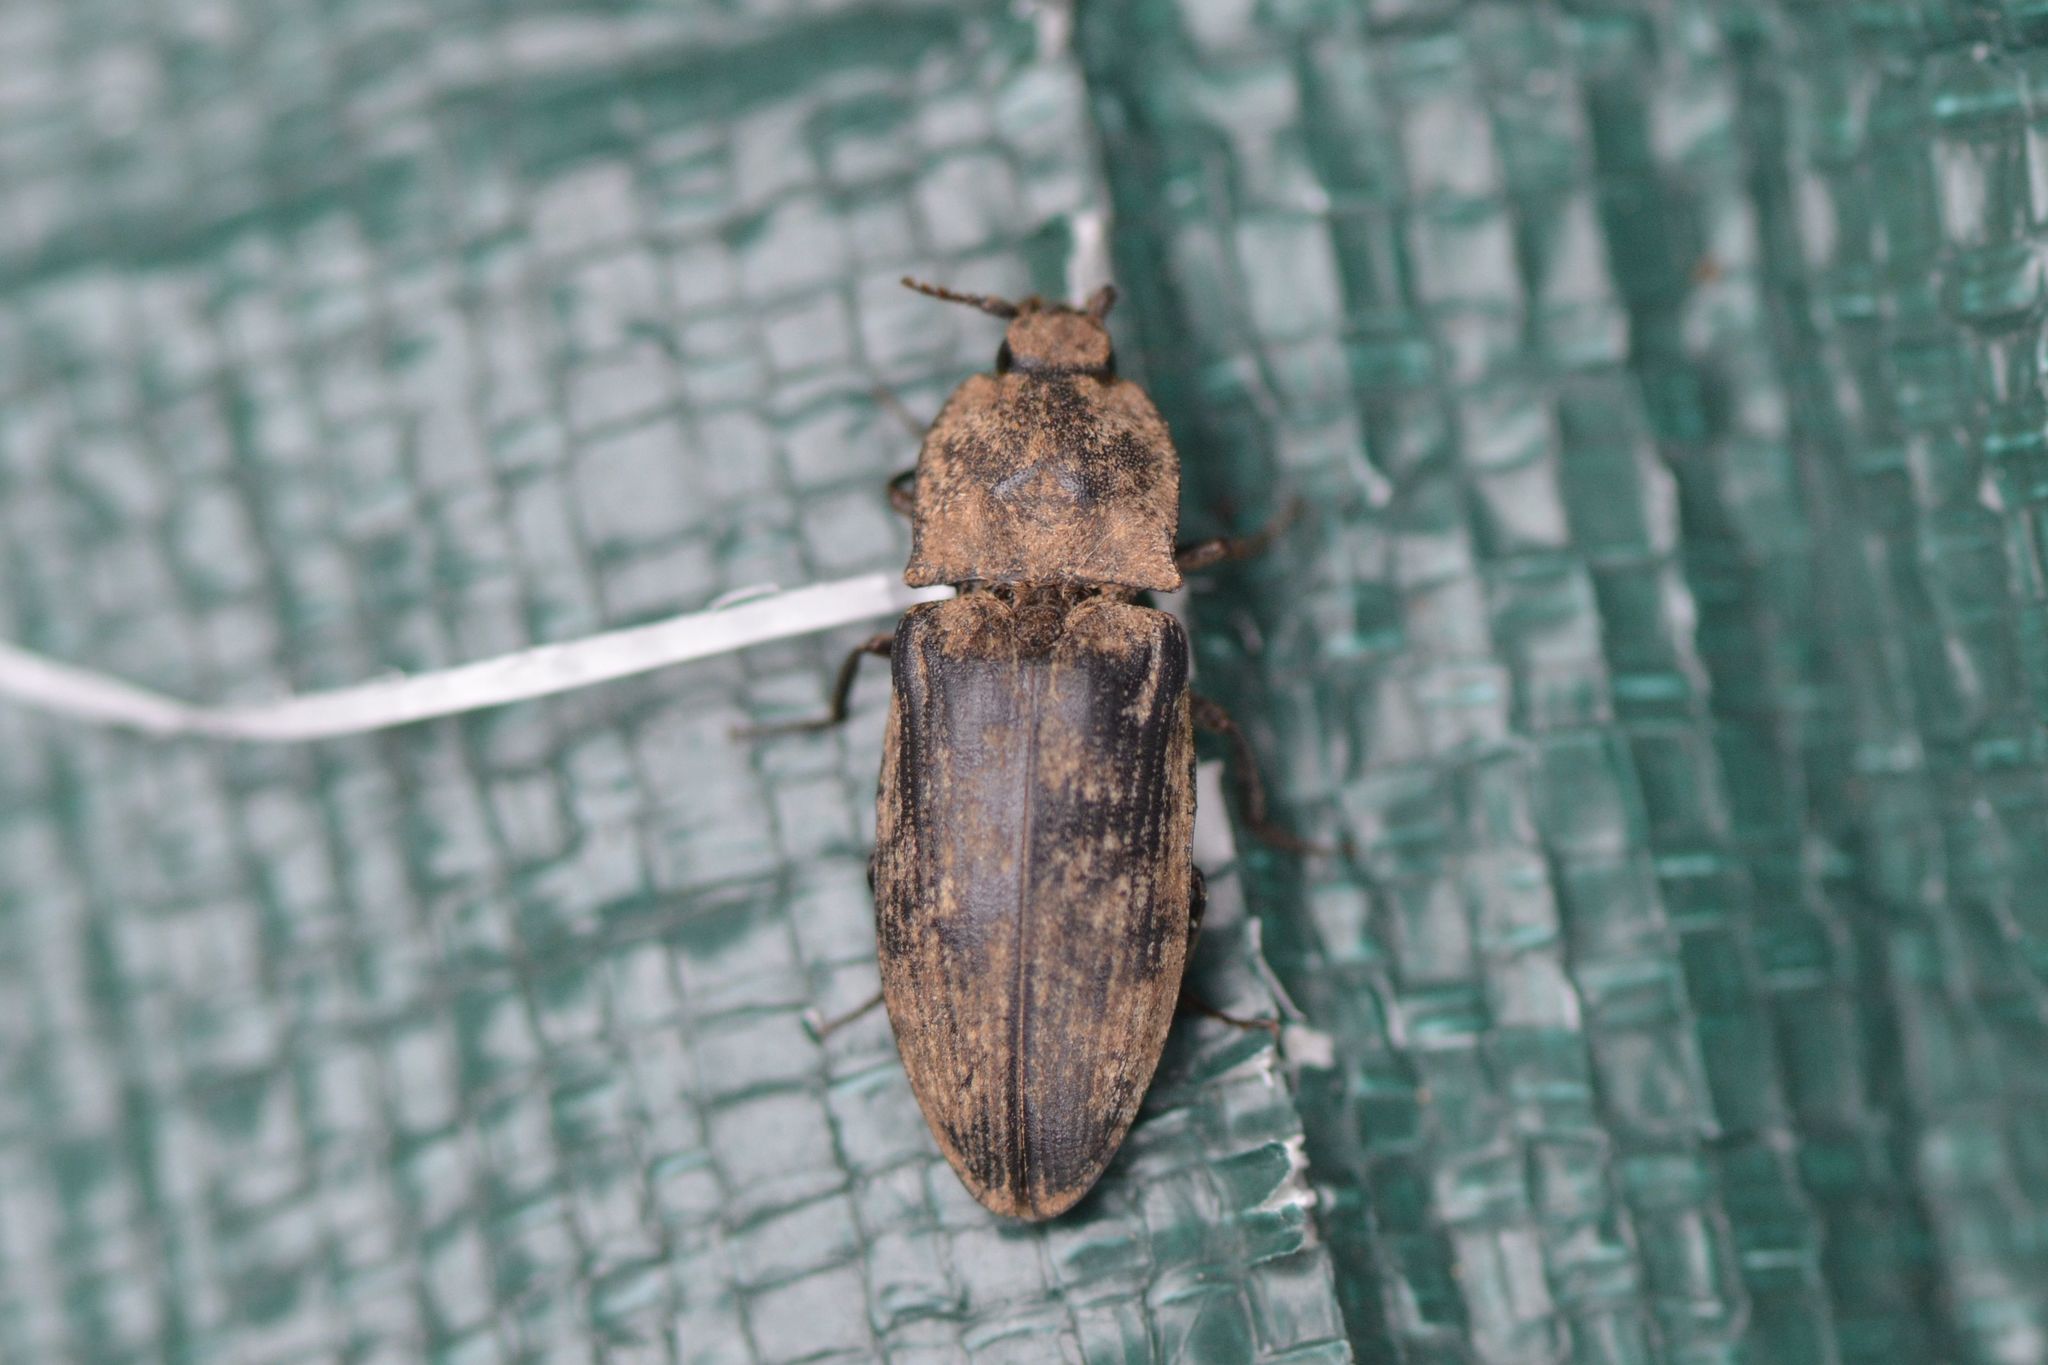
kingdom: Animalia
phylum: Arthropoda
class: Insecta
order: Coleoptera
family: Elateridae
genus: Agrypnus
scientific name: Agrypnus murinus
